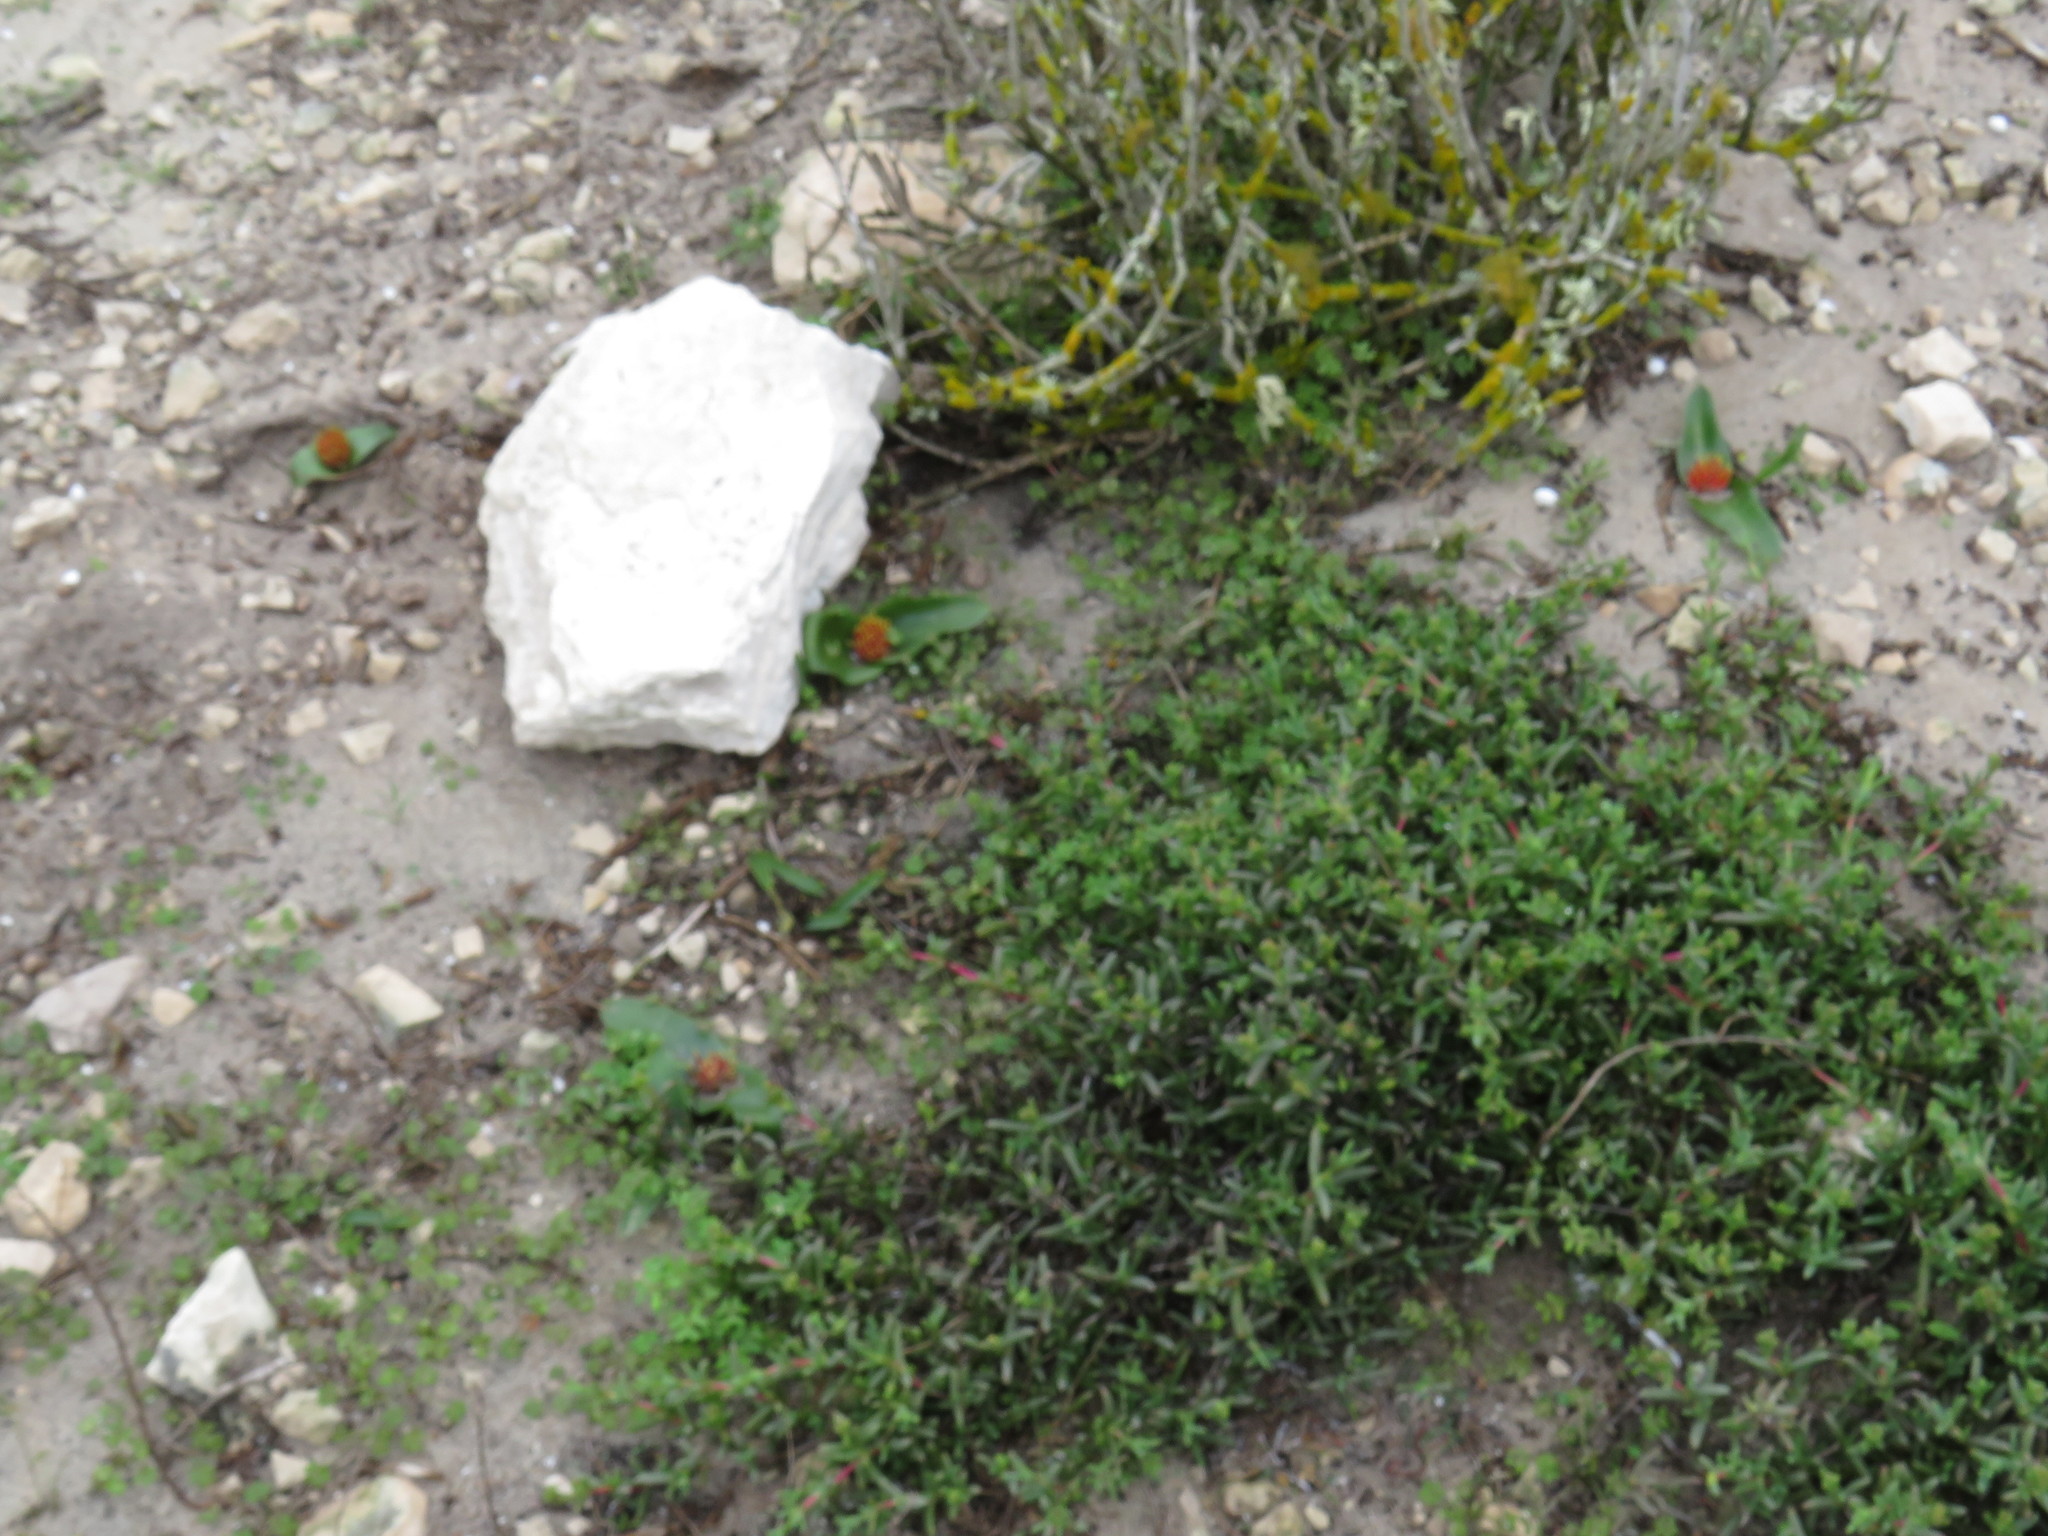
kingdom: Plantae
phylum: Tracheophyta
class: Liliopsida
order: Asparagales
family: Asparagaceae
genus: Daubenya
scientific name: Daubenya zeyheri
